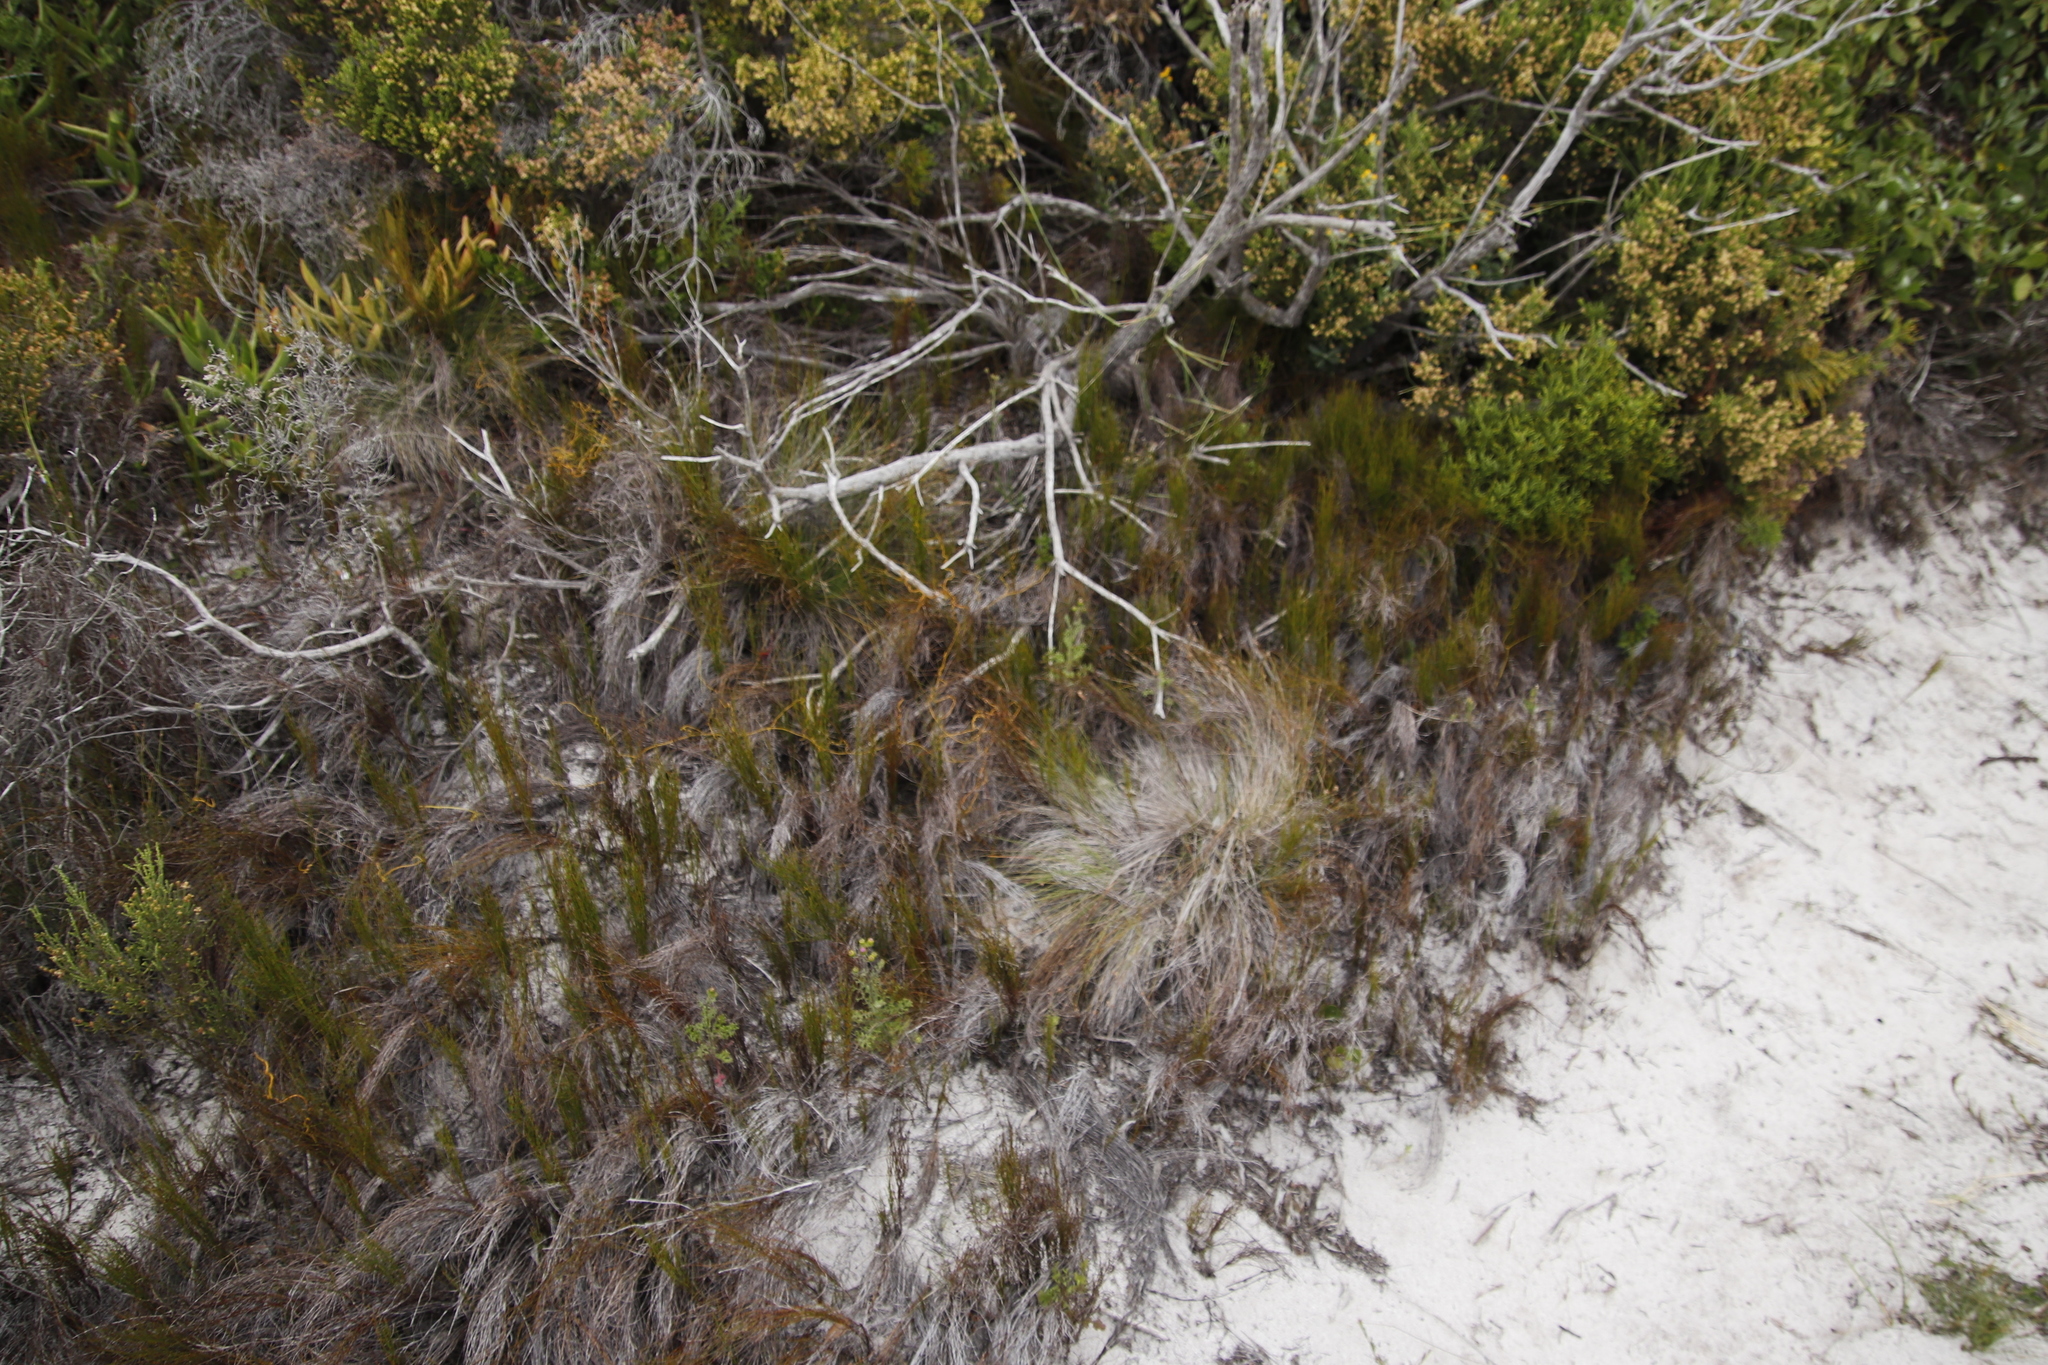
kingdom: Plantae
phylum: Tracheophyta
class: Liliopsida
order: Poales
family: Restionaceae
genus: Restio
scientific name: Restio eleocharis
